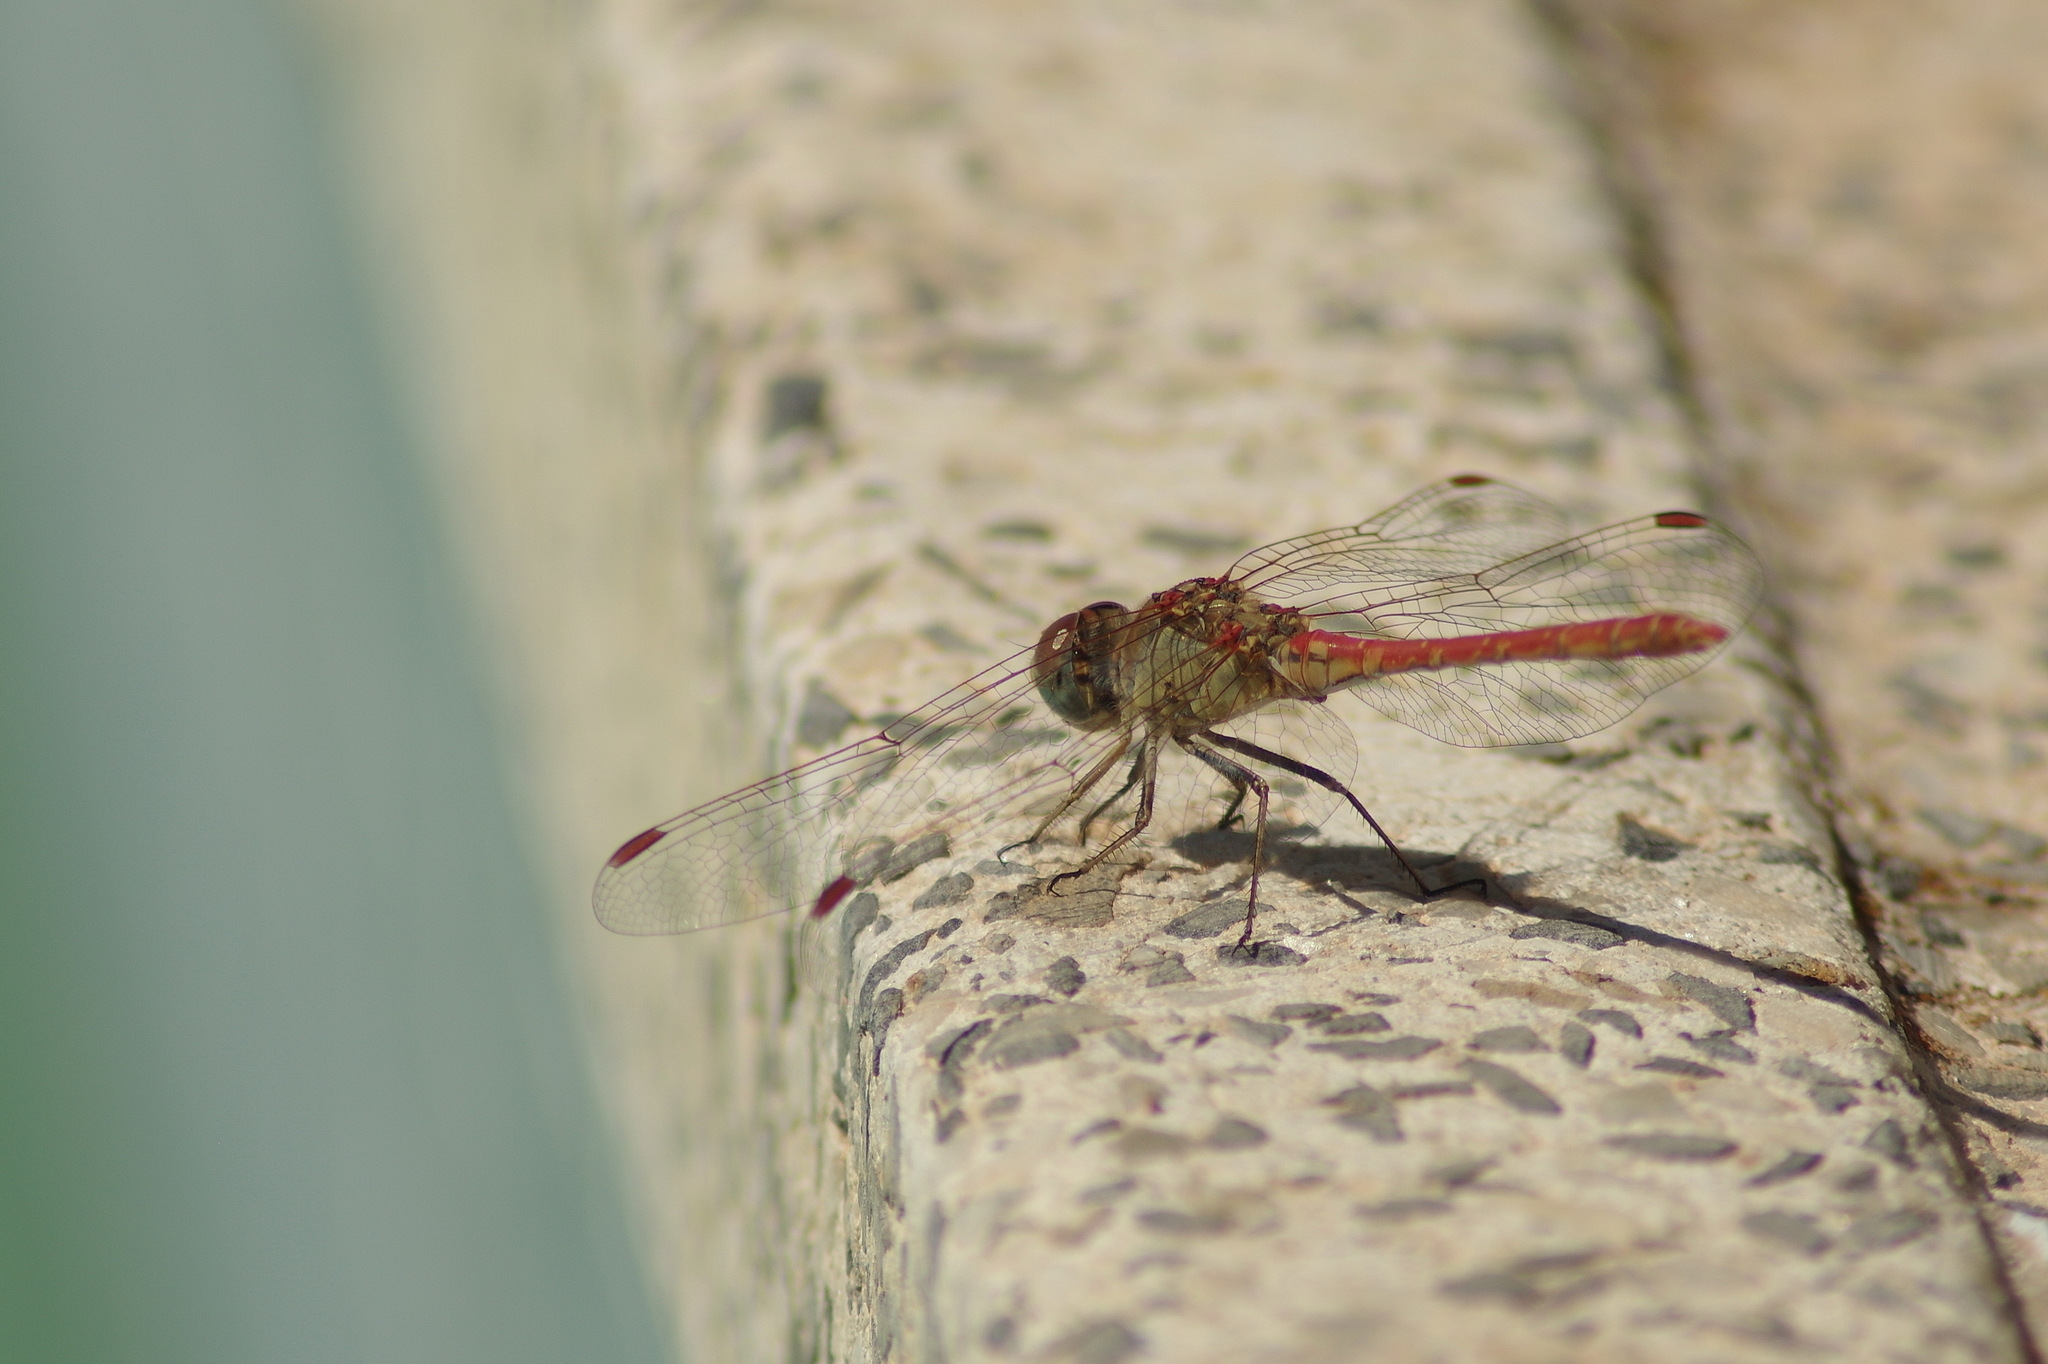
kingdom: Animalia
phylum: Arthropoda
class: Insecta
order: Odonata
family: Libellulidae
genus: Sympetrum
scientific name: Sympetrum sinaiticum
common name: Desert darter
